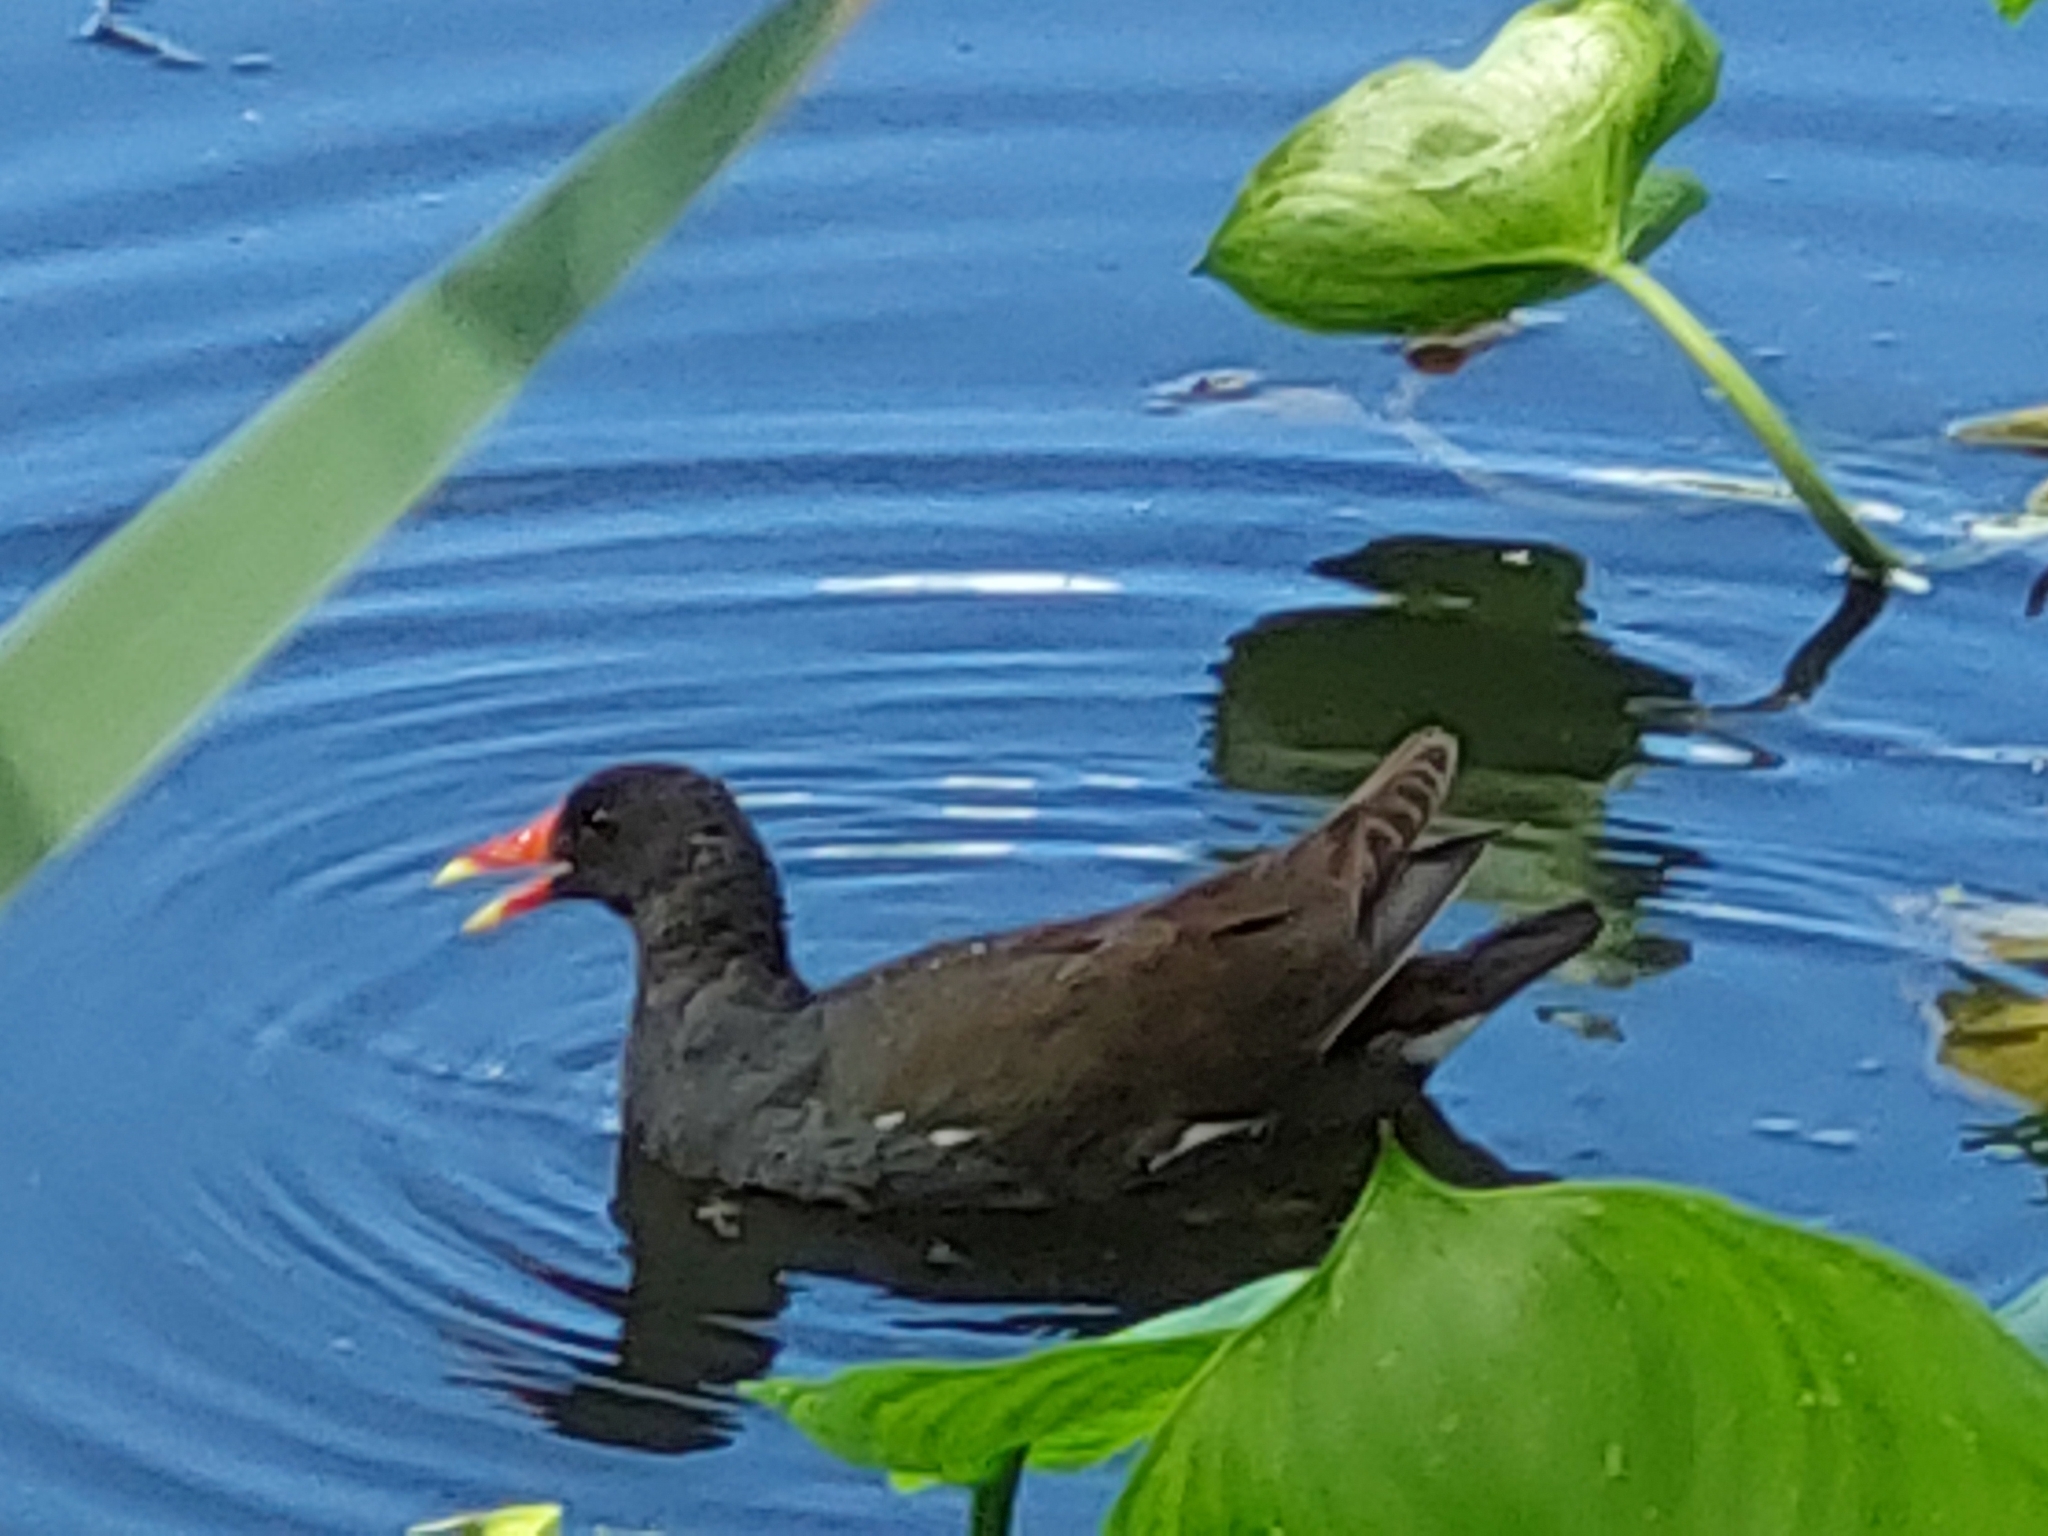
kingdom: Animalia
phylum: Chordata
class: Aves
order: Gruiformes
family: Rallidae
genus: Gallinula
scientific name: Gallinula chloropus
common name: Common moorhen
